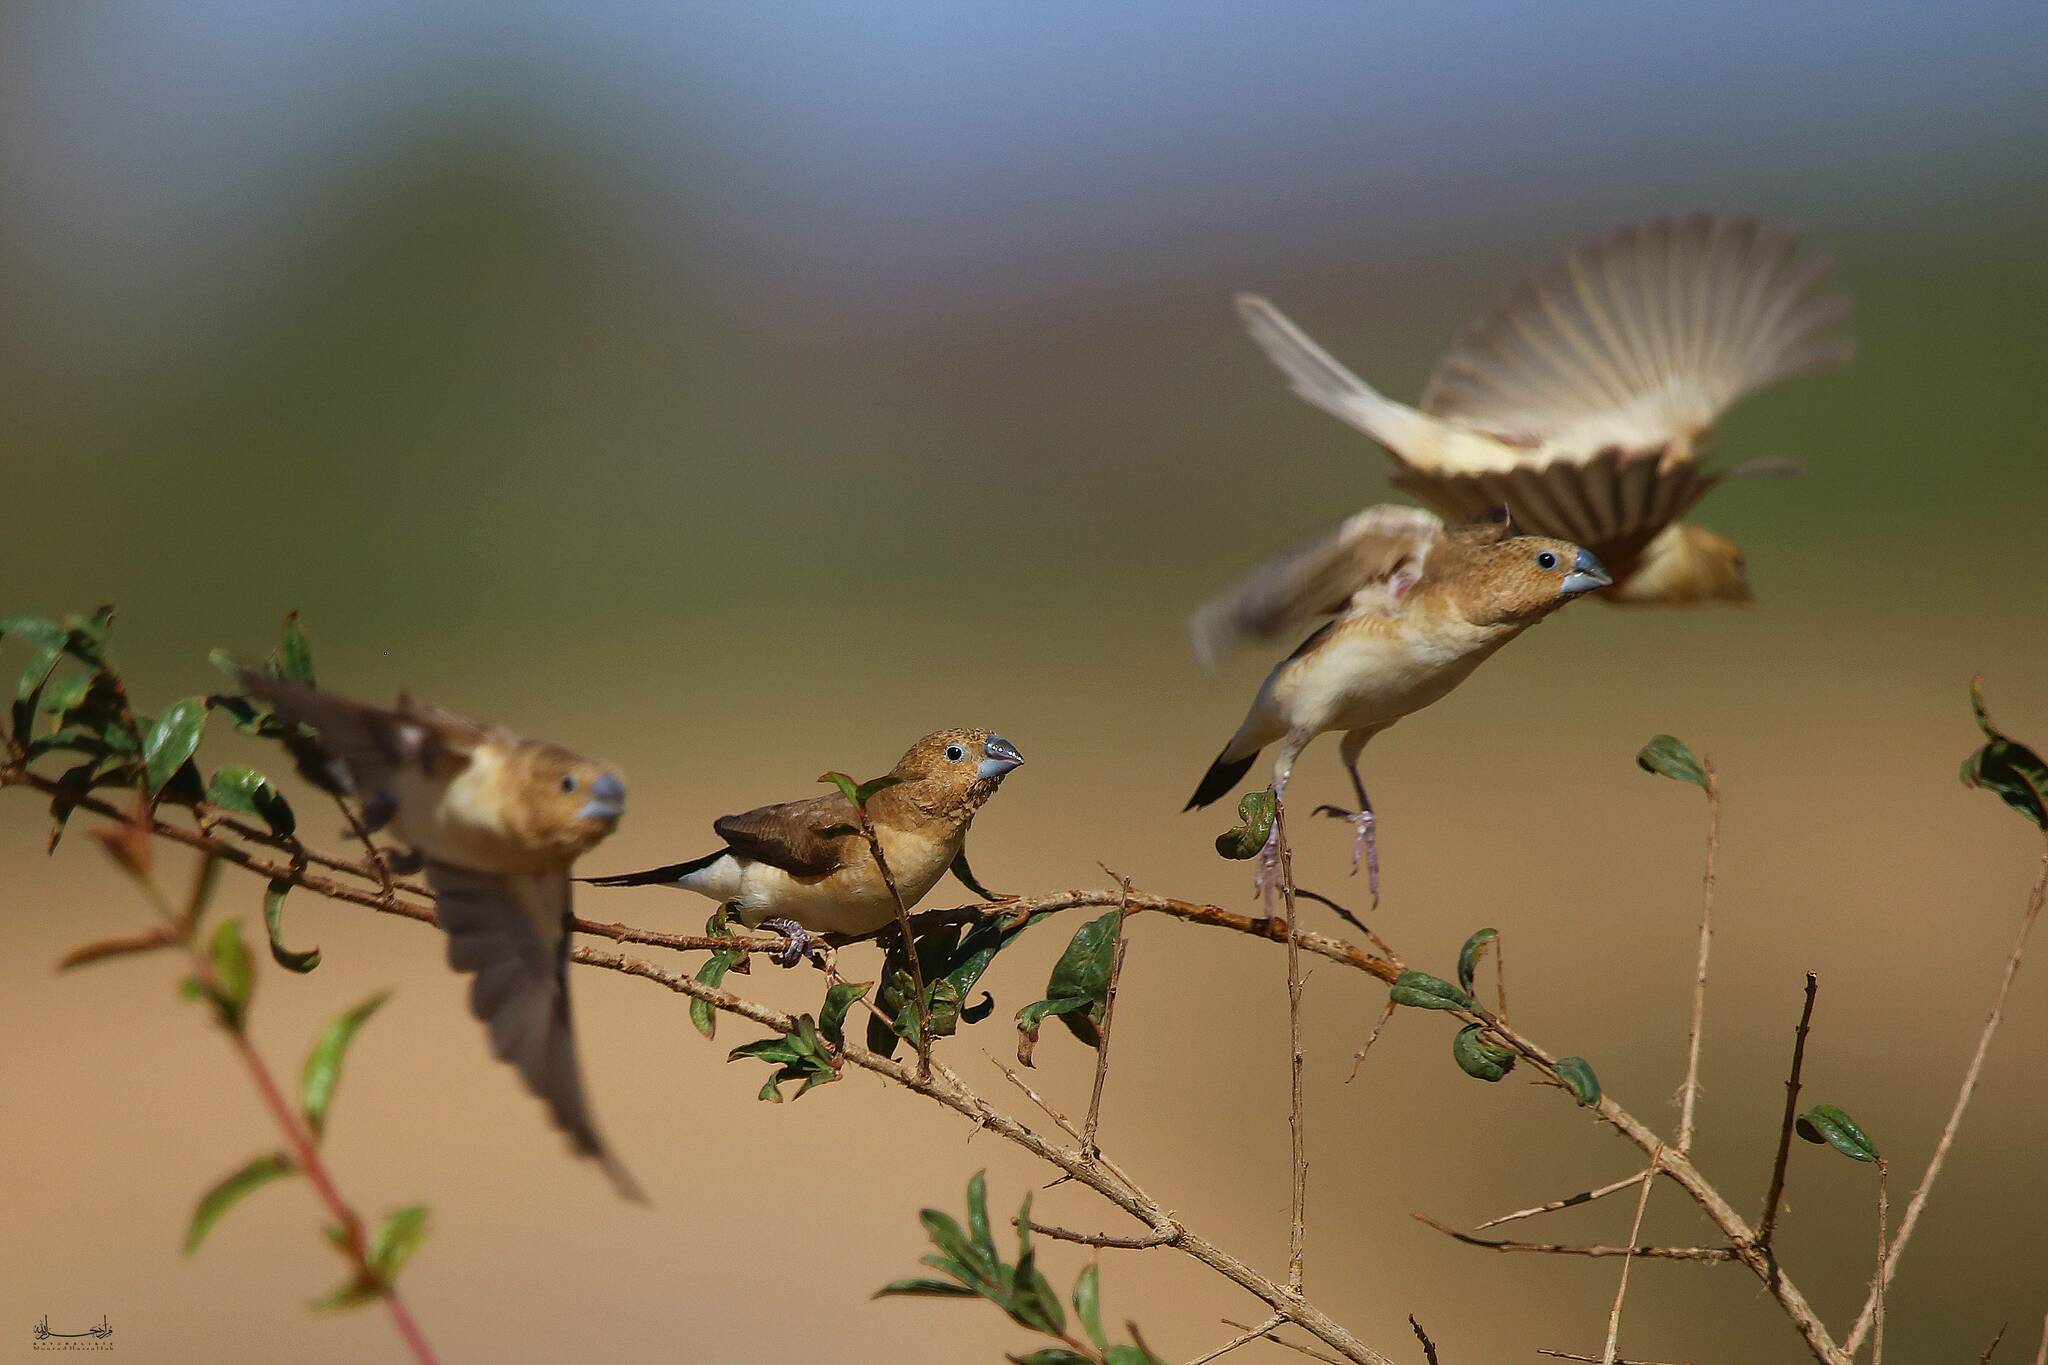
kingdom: Animalia
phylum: Chordata
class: Aves
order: Passeriformes
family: Estrildidae
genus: Euodice
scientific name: Euodice cantans
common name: African silverbill
